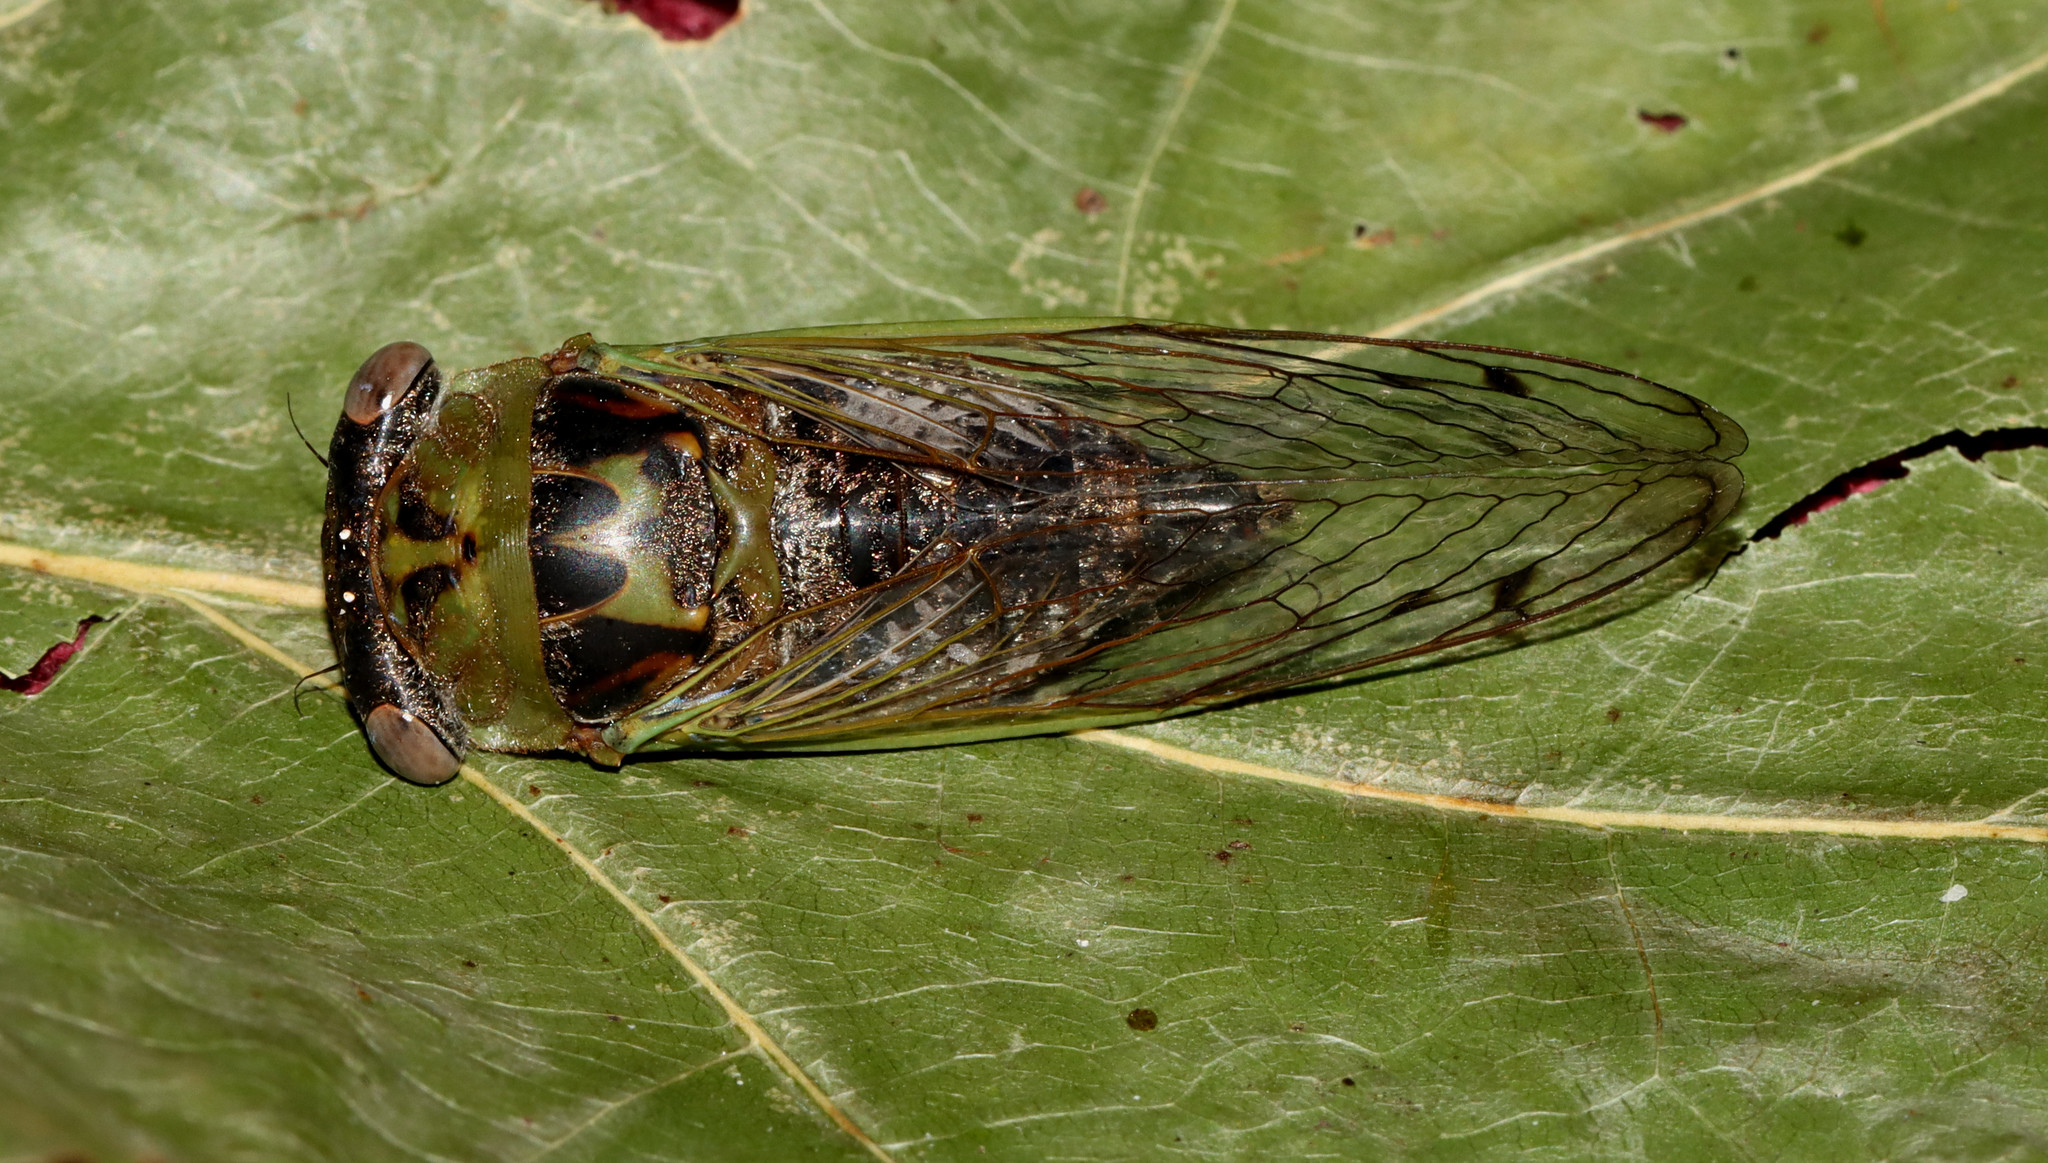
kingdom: Animalia
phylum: Arthropoda
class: Insecta
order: Hemiptera
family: Cicadidae
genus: Neotibicen
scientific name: Neotibicen aurifer
